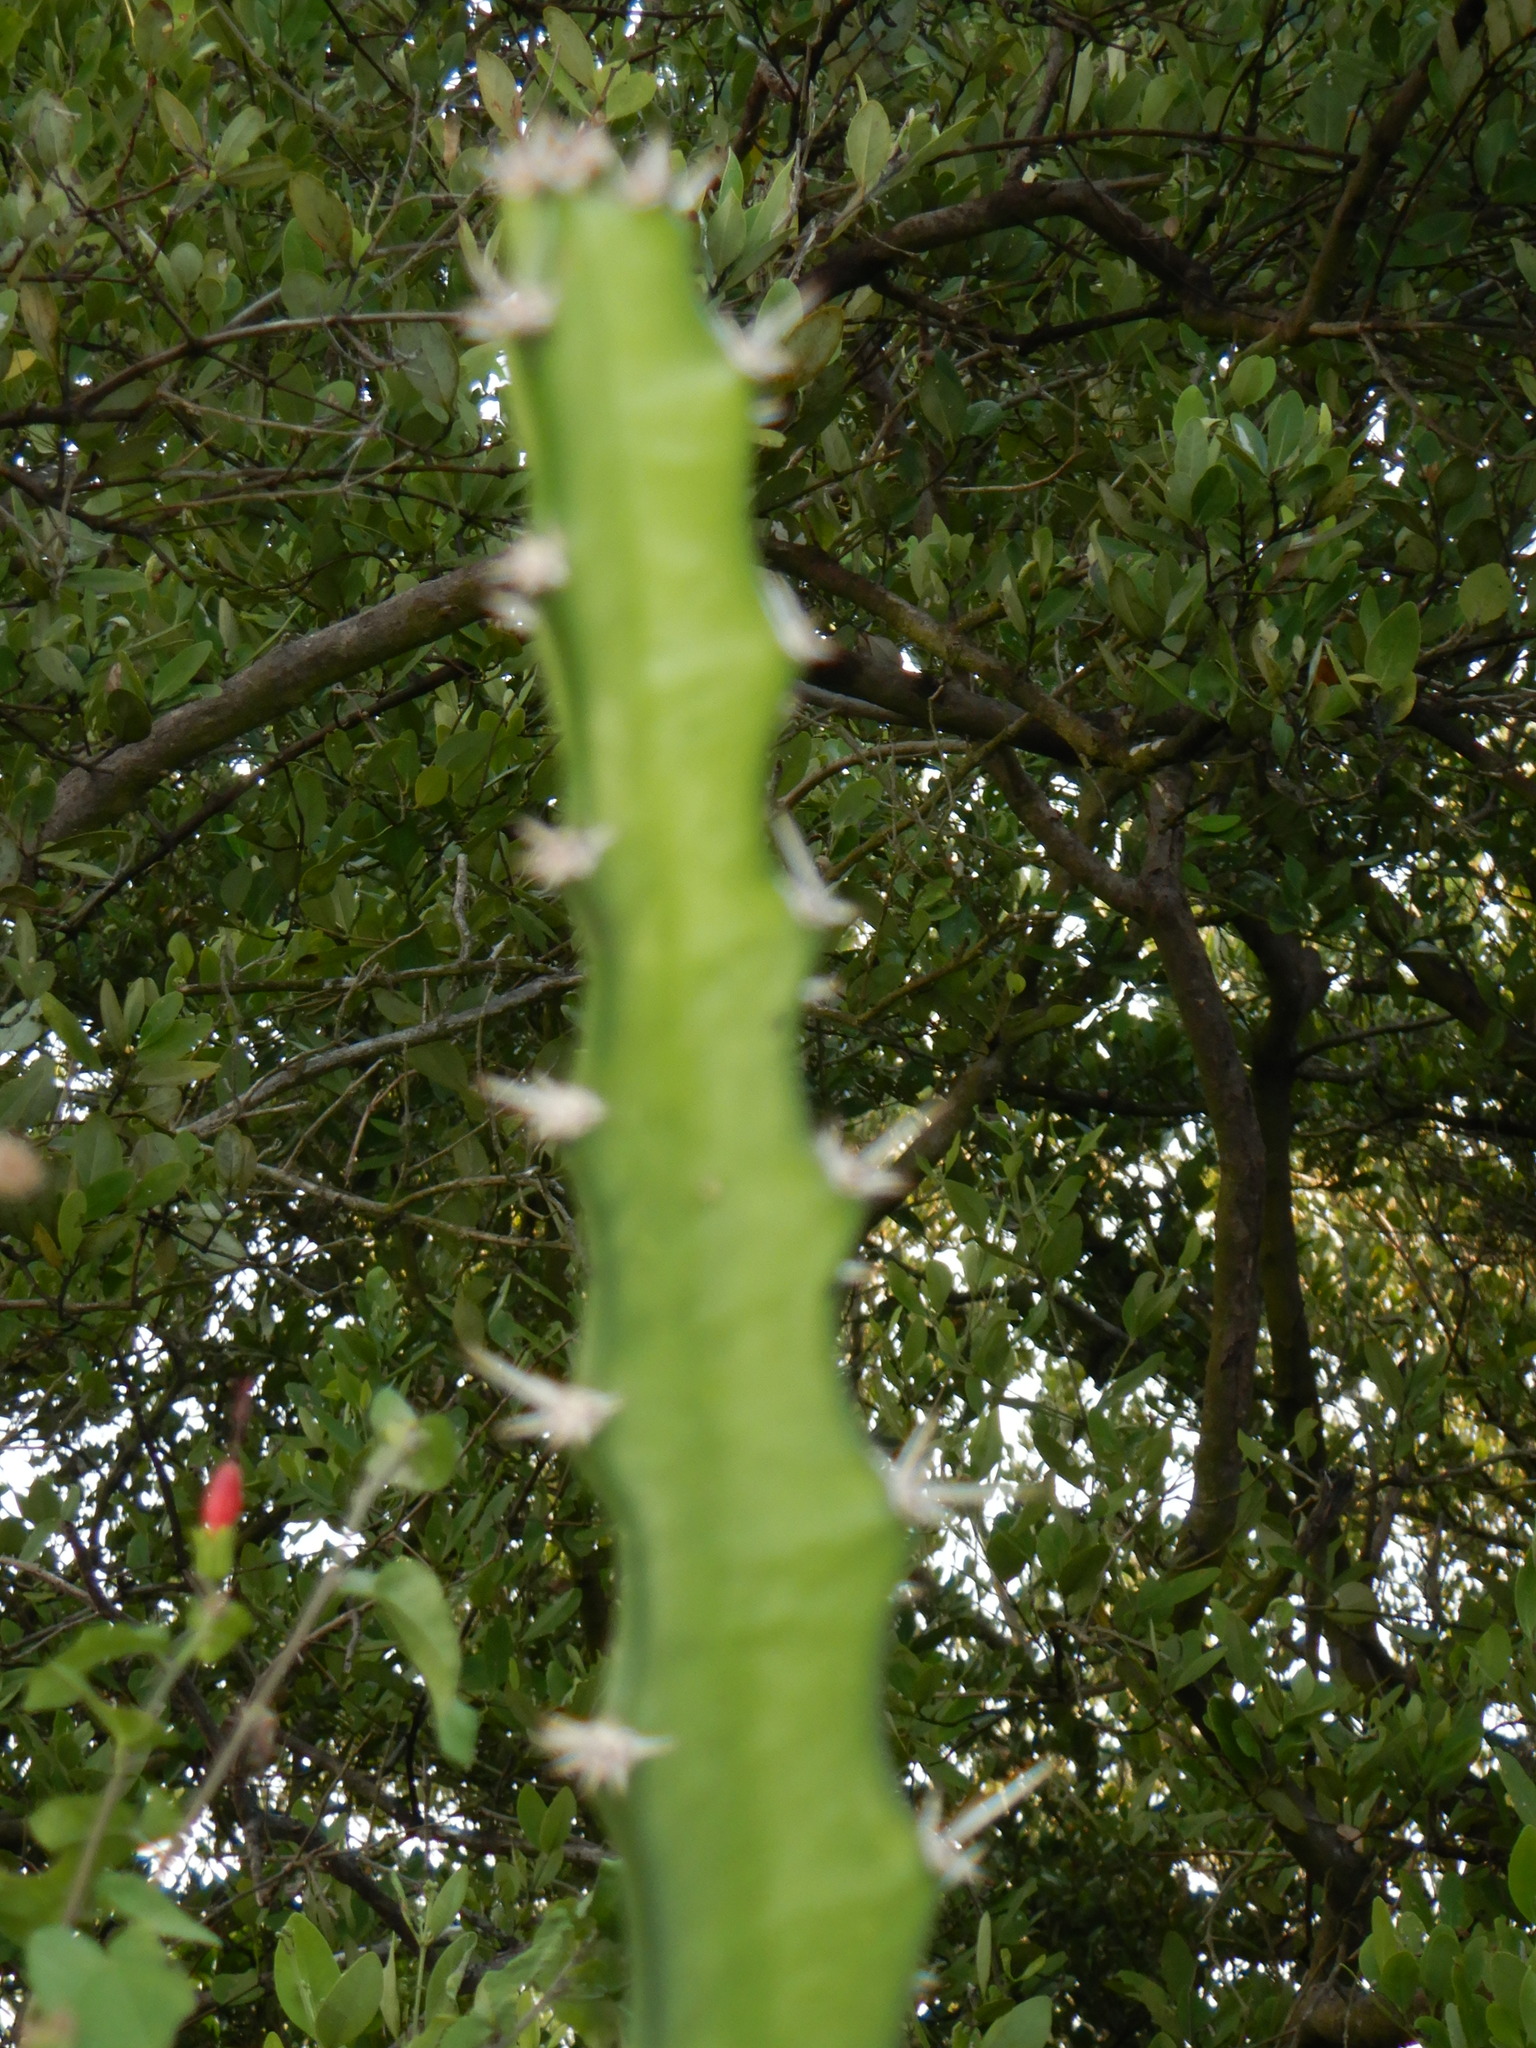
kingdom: Plantae
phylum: Tracheophyta
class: Magnoliopsida
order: Caryophyllales
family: Cactaceae
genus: Acanthocereus
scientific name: Acanthocereus tetragonus
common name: Triangle cactus
